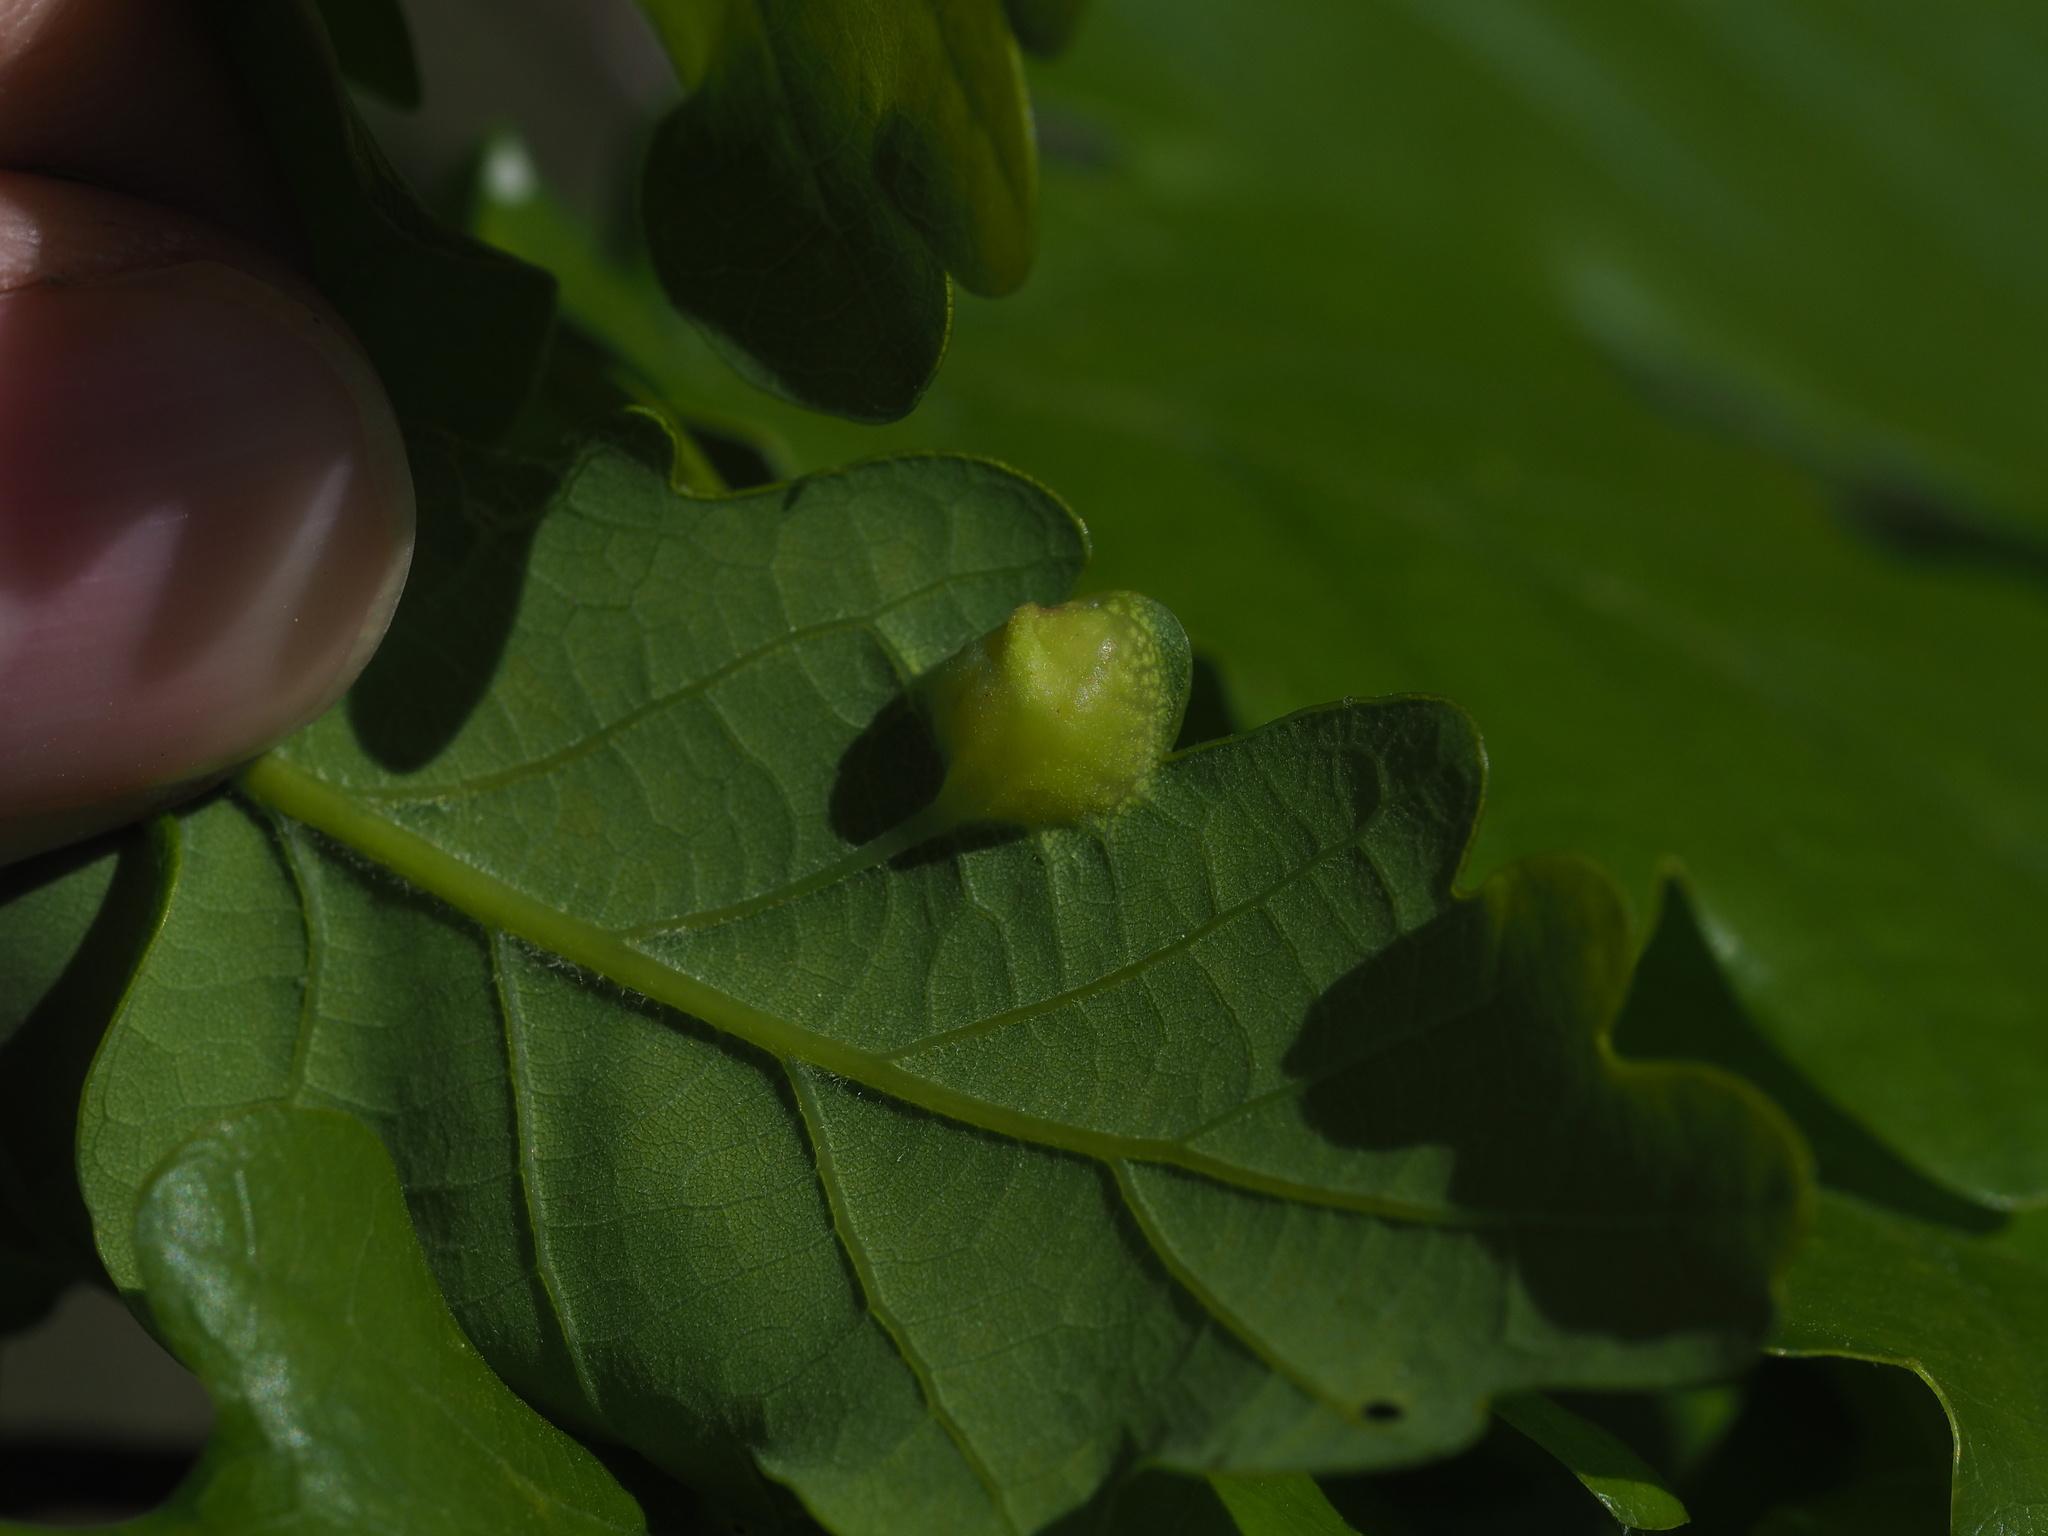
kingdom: Animalia
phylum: Arthropoda
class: Insecta
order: Hymenoptera
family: Cynipidae
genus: Andricus
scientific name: Andricus curvator
